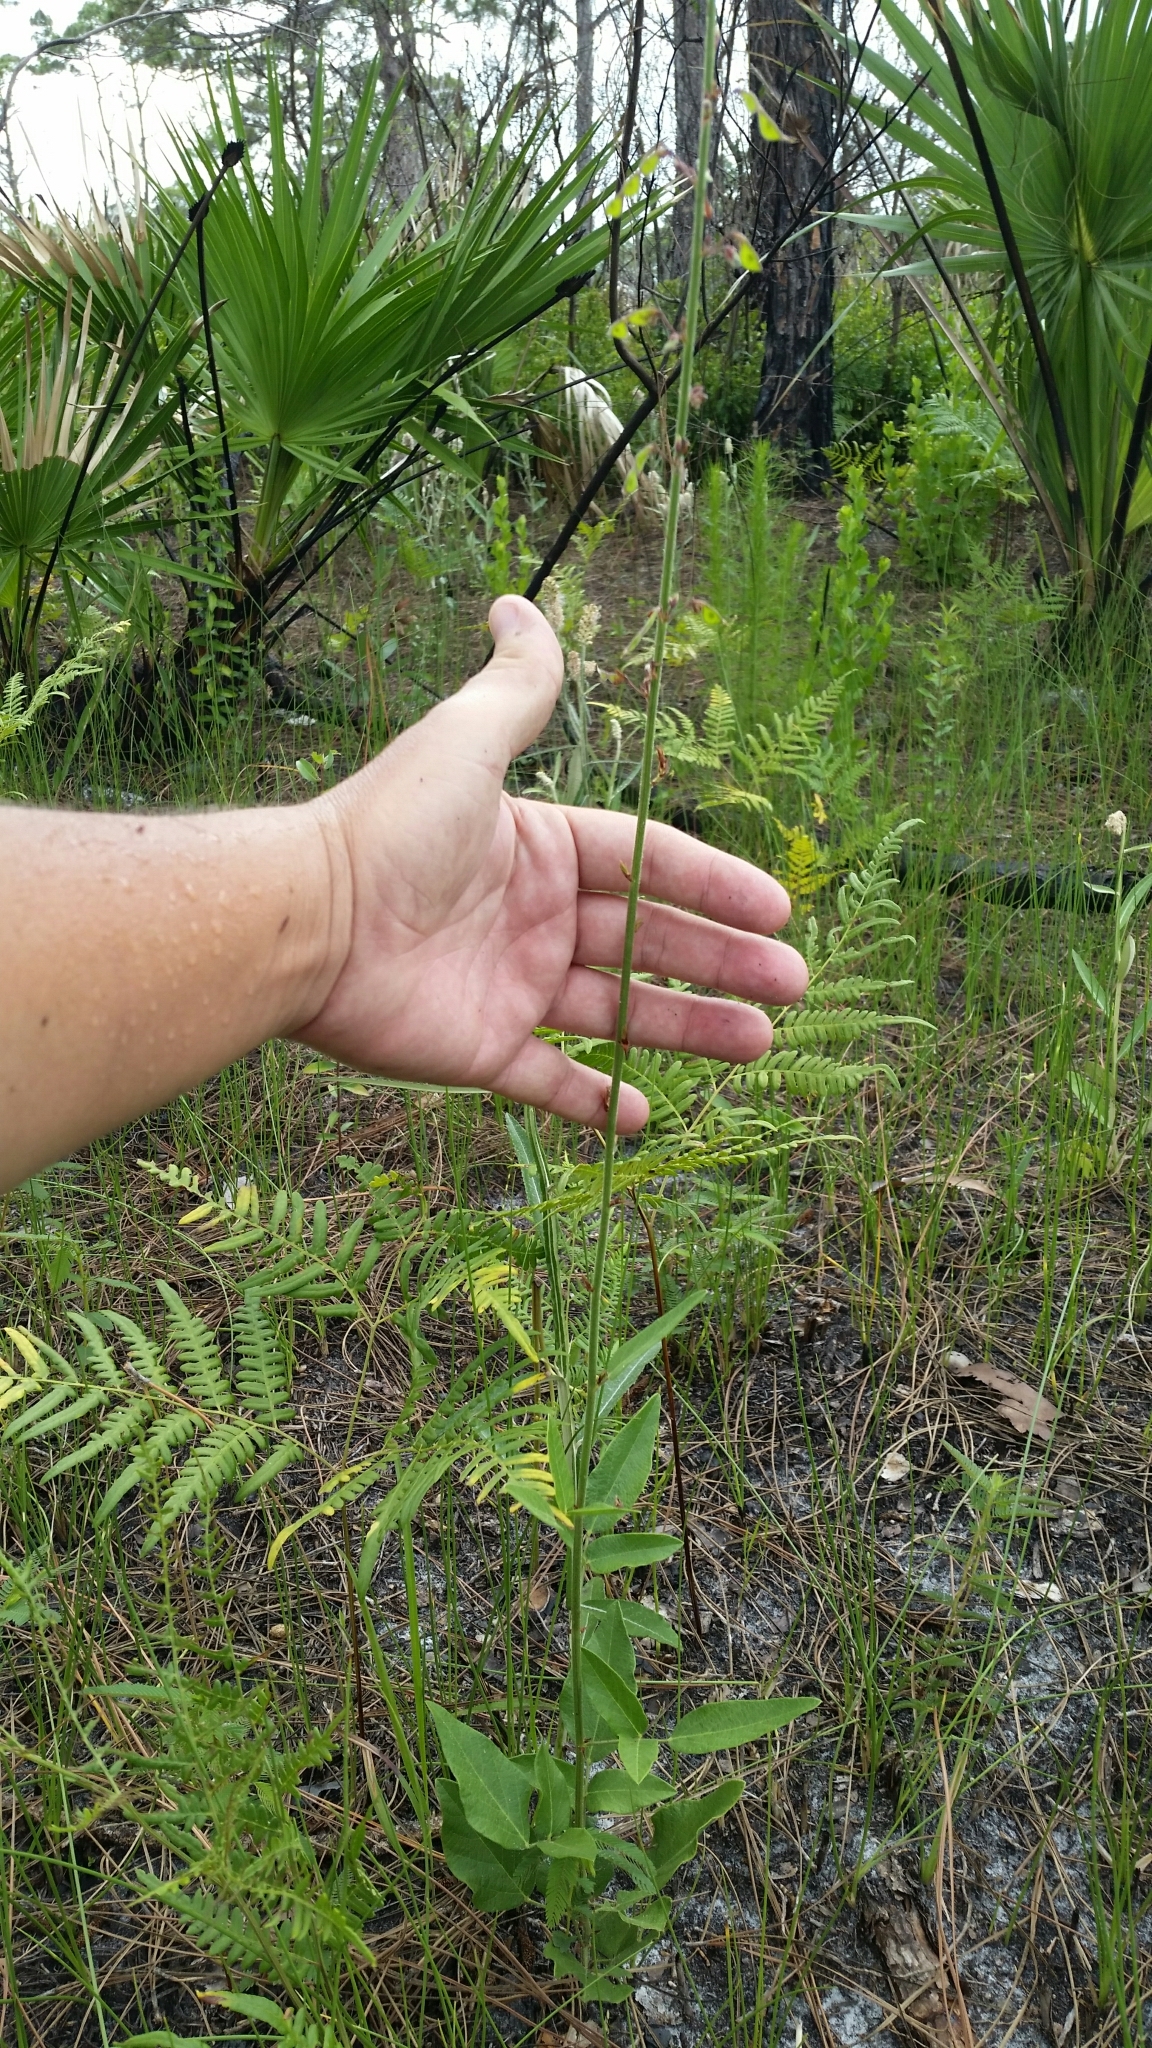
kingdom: Plantae
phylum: Tracheophyta
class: Magnoliopsida
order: Fabales
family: Fabaceae
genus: Desmodium
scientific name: Desmodium floridanum
